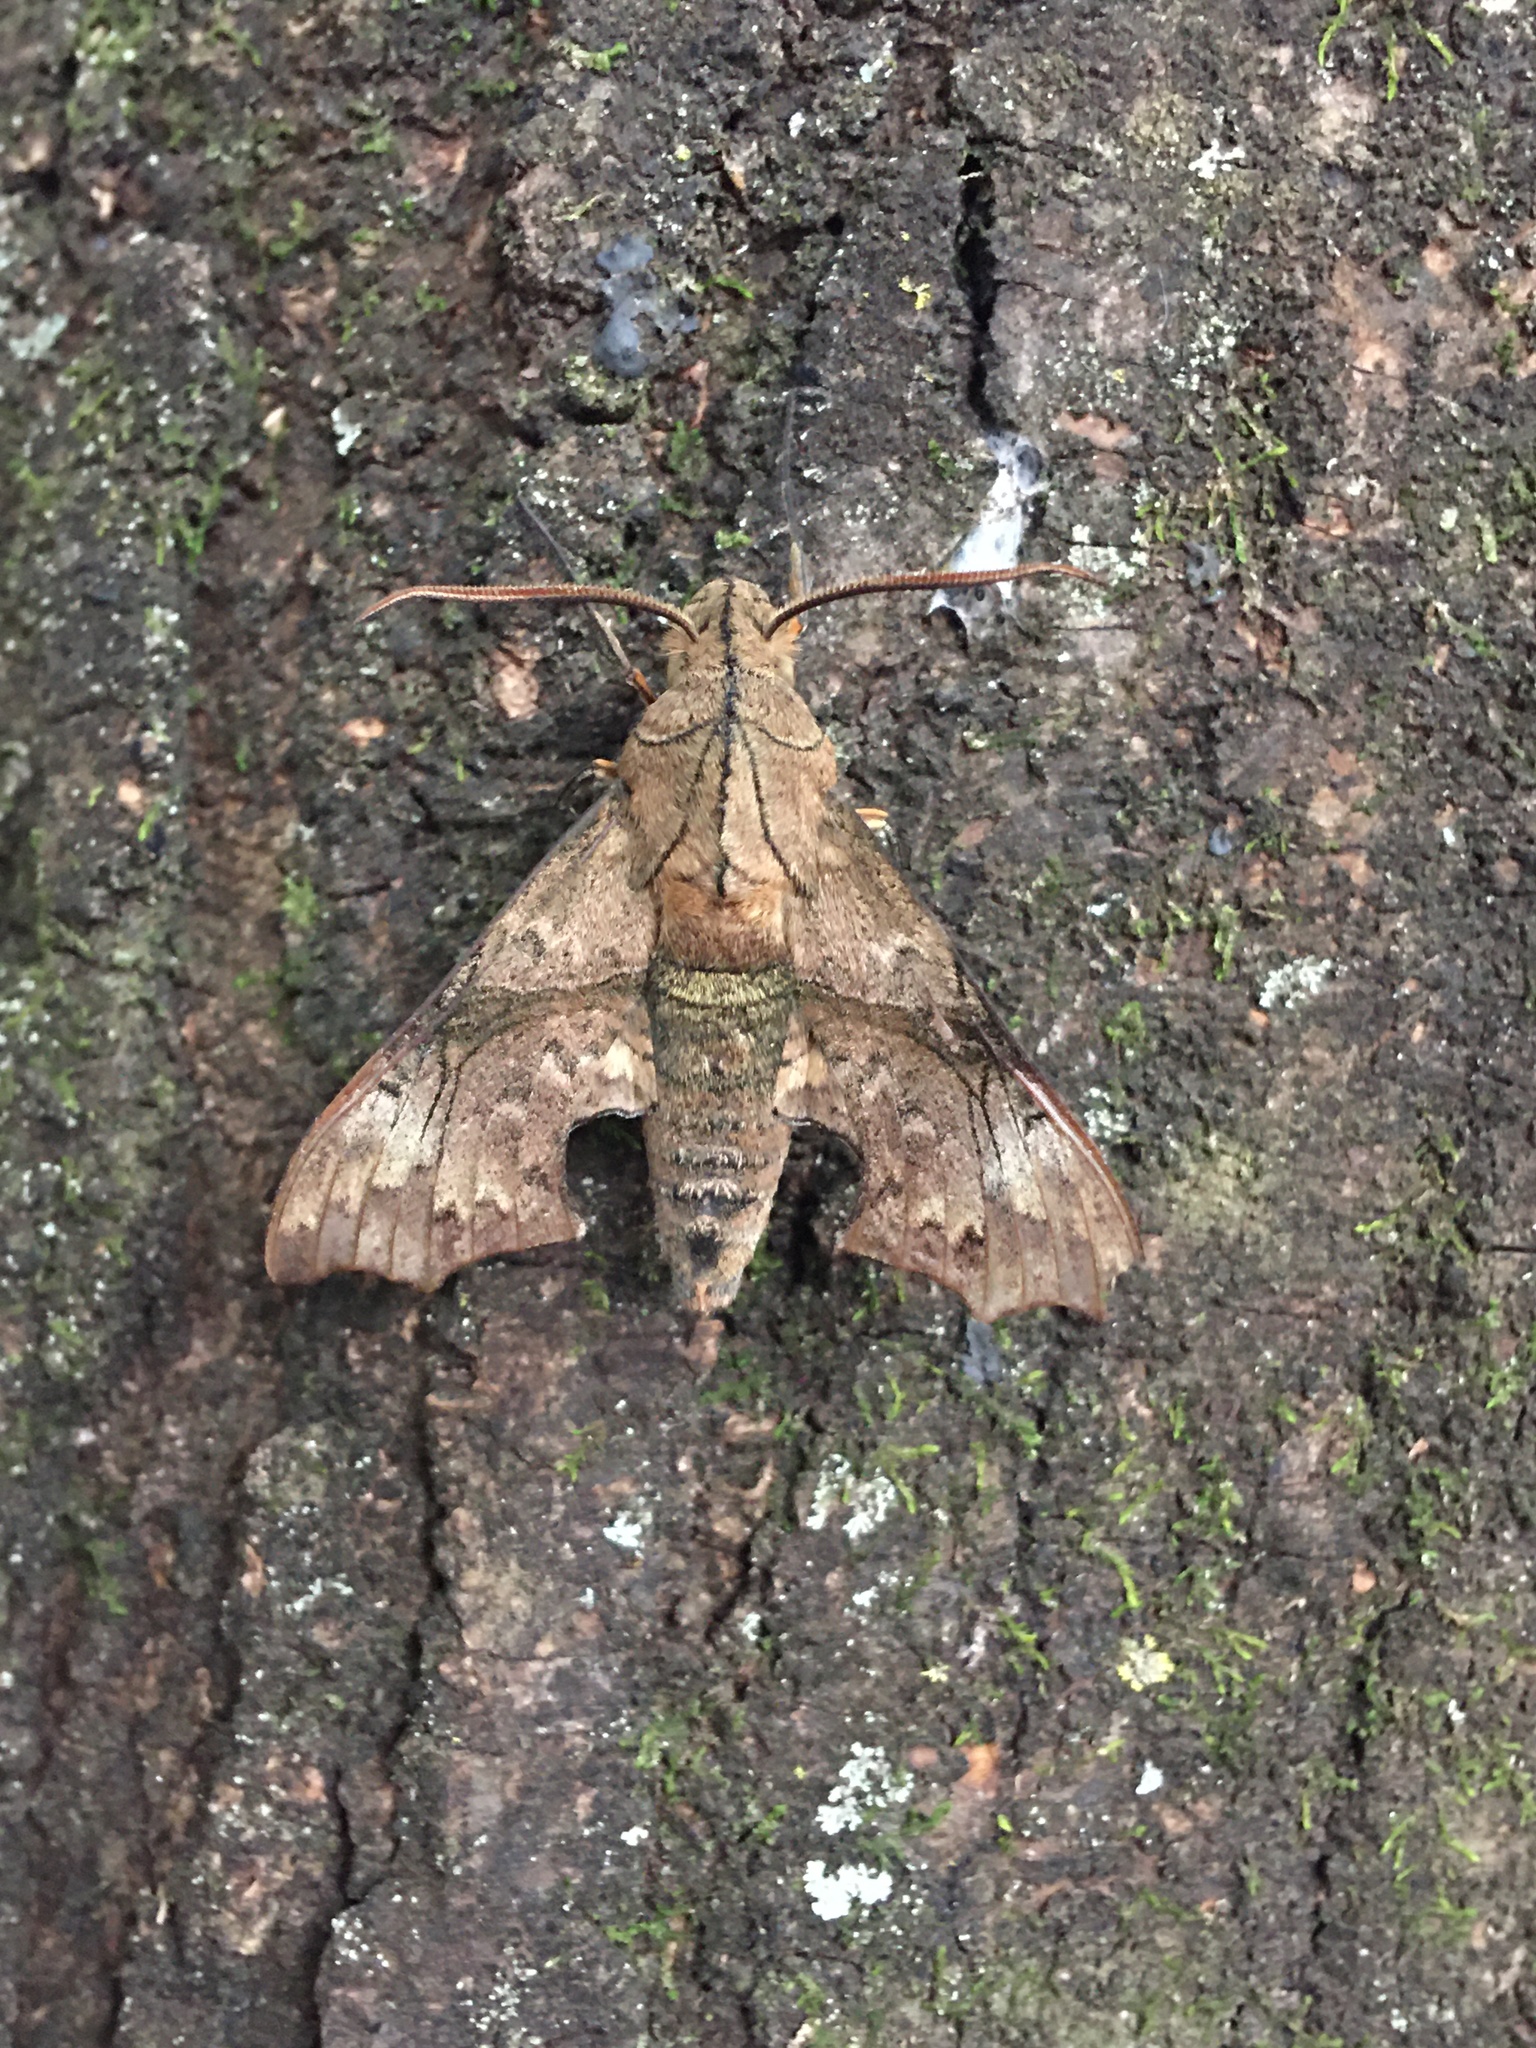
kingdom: Animalia
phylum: Arthropoda
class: Insecta
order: Lepidoptera
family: Sphingidae
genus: Aleuron
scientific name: Aleuron neglectum
